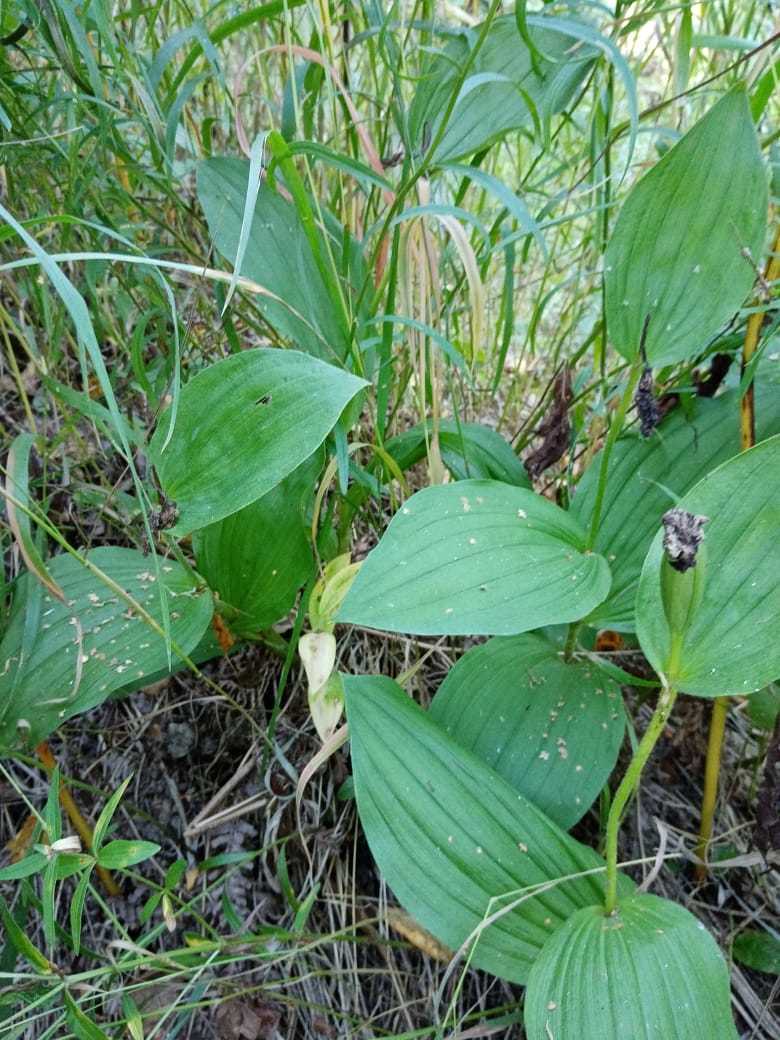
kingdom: Plantae
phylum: Tracheophyta
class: Liliopsida
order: Asparagales
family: Orchidaceae
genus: Cypripedium
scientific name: Cypripedium macranthos
